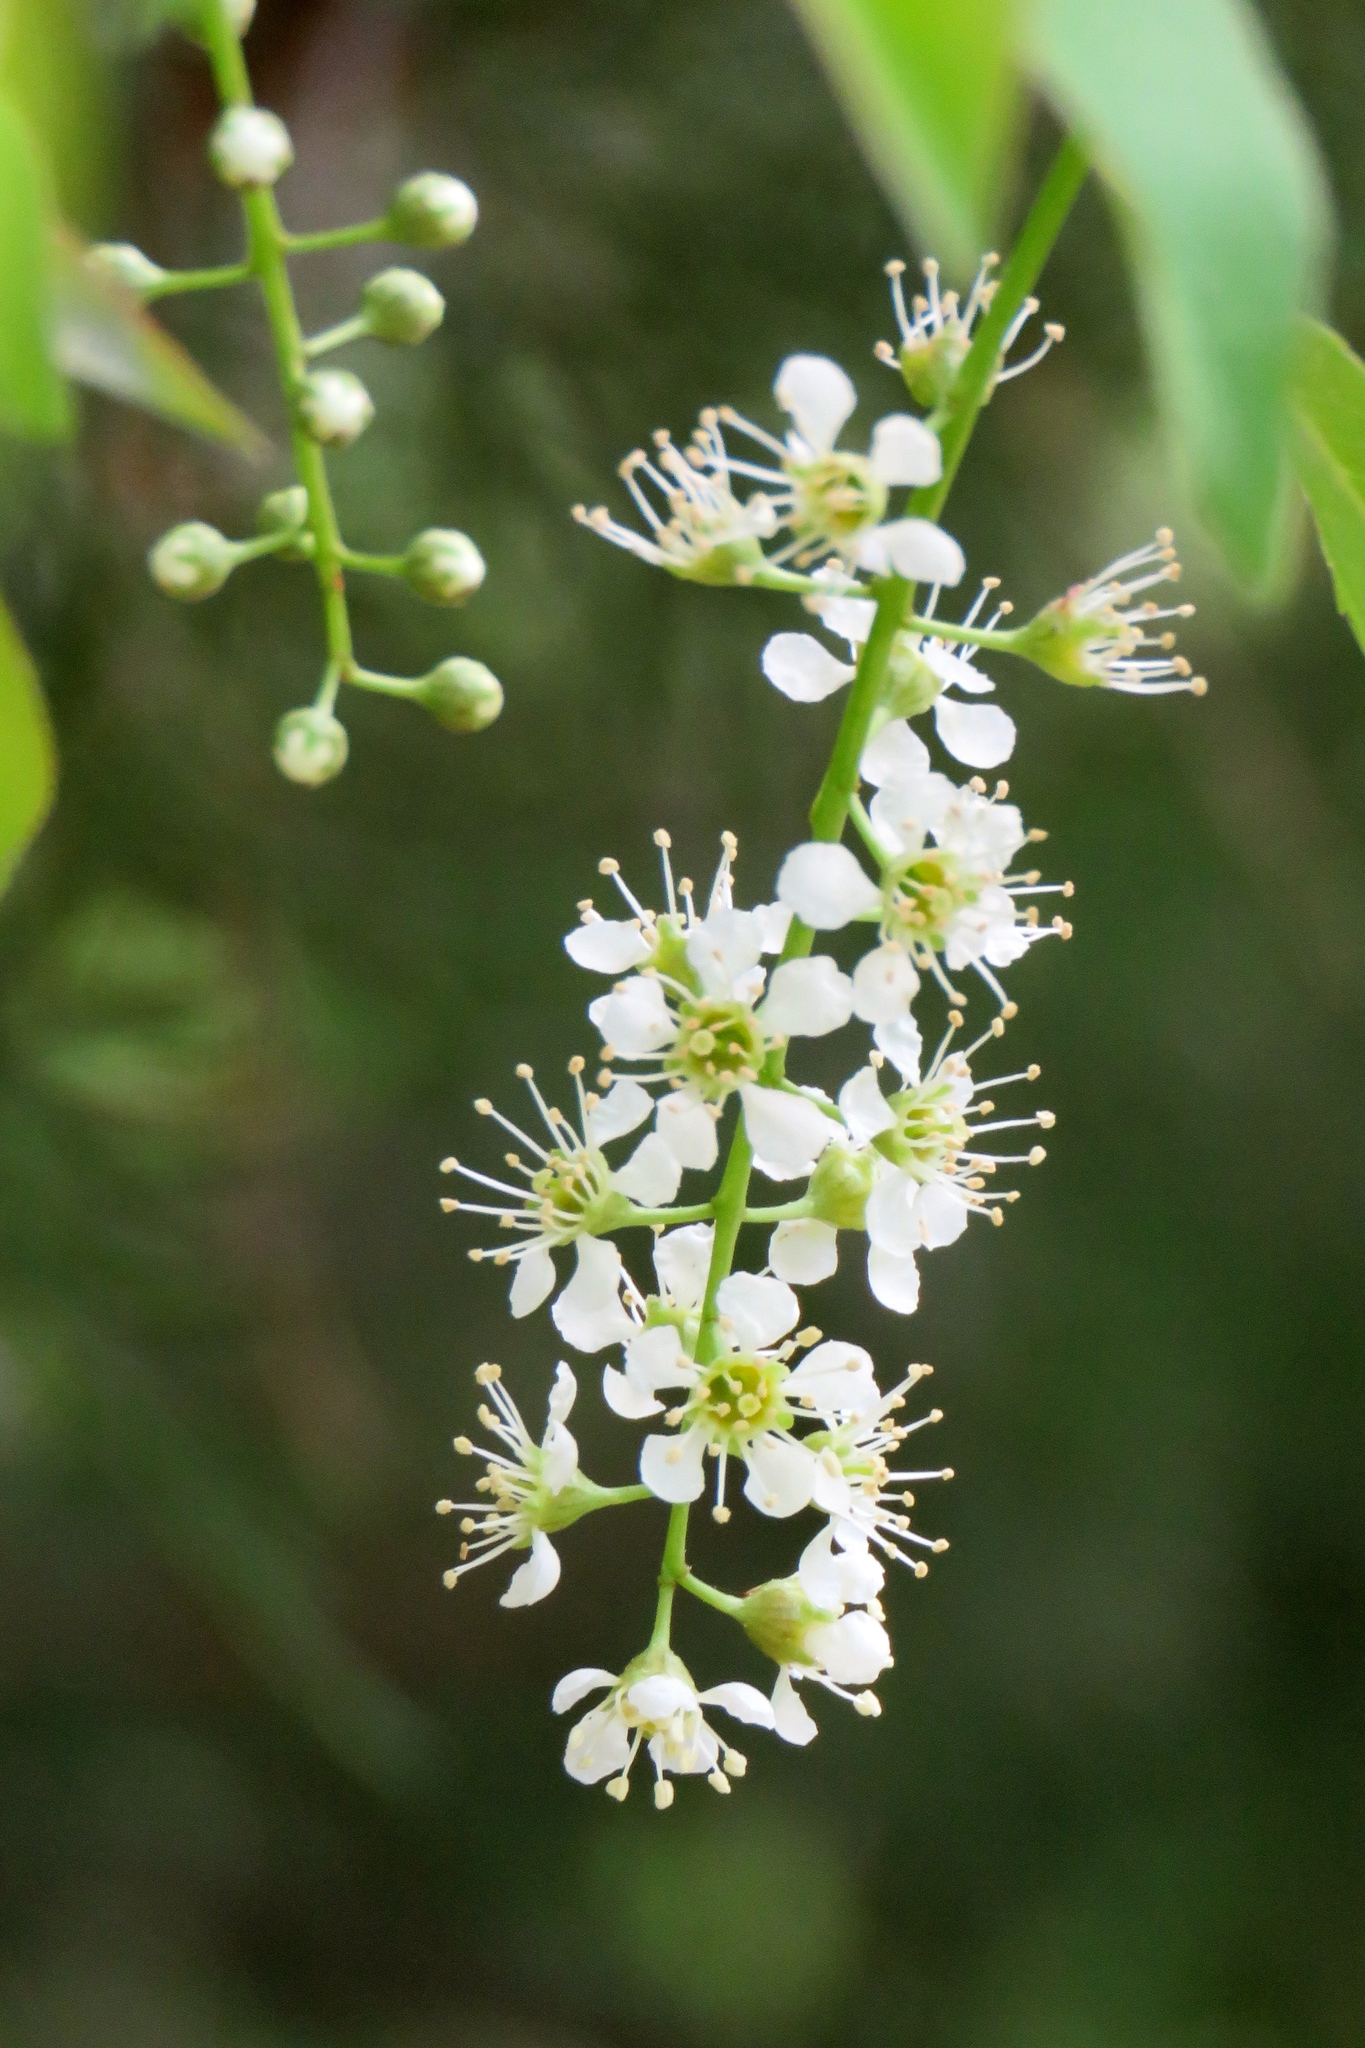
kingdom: Plantae
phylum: Tracheophyta
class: Magnoliopsida
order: Rosales
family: Rosaceae
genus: Prunus
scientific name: Prunus serotina
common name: Black cherry
